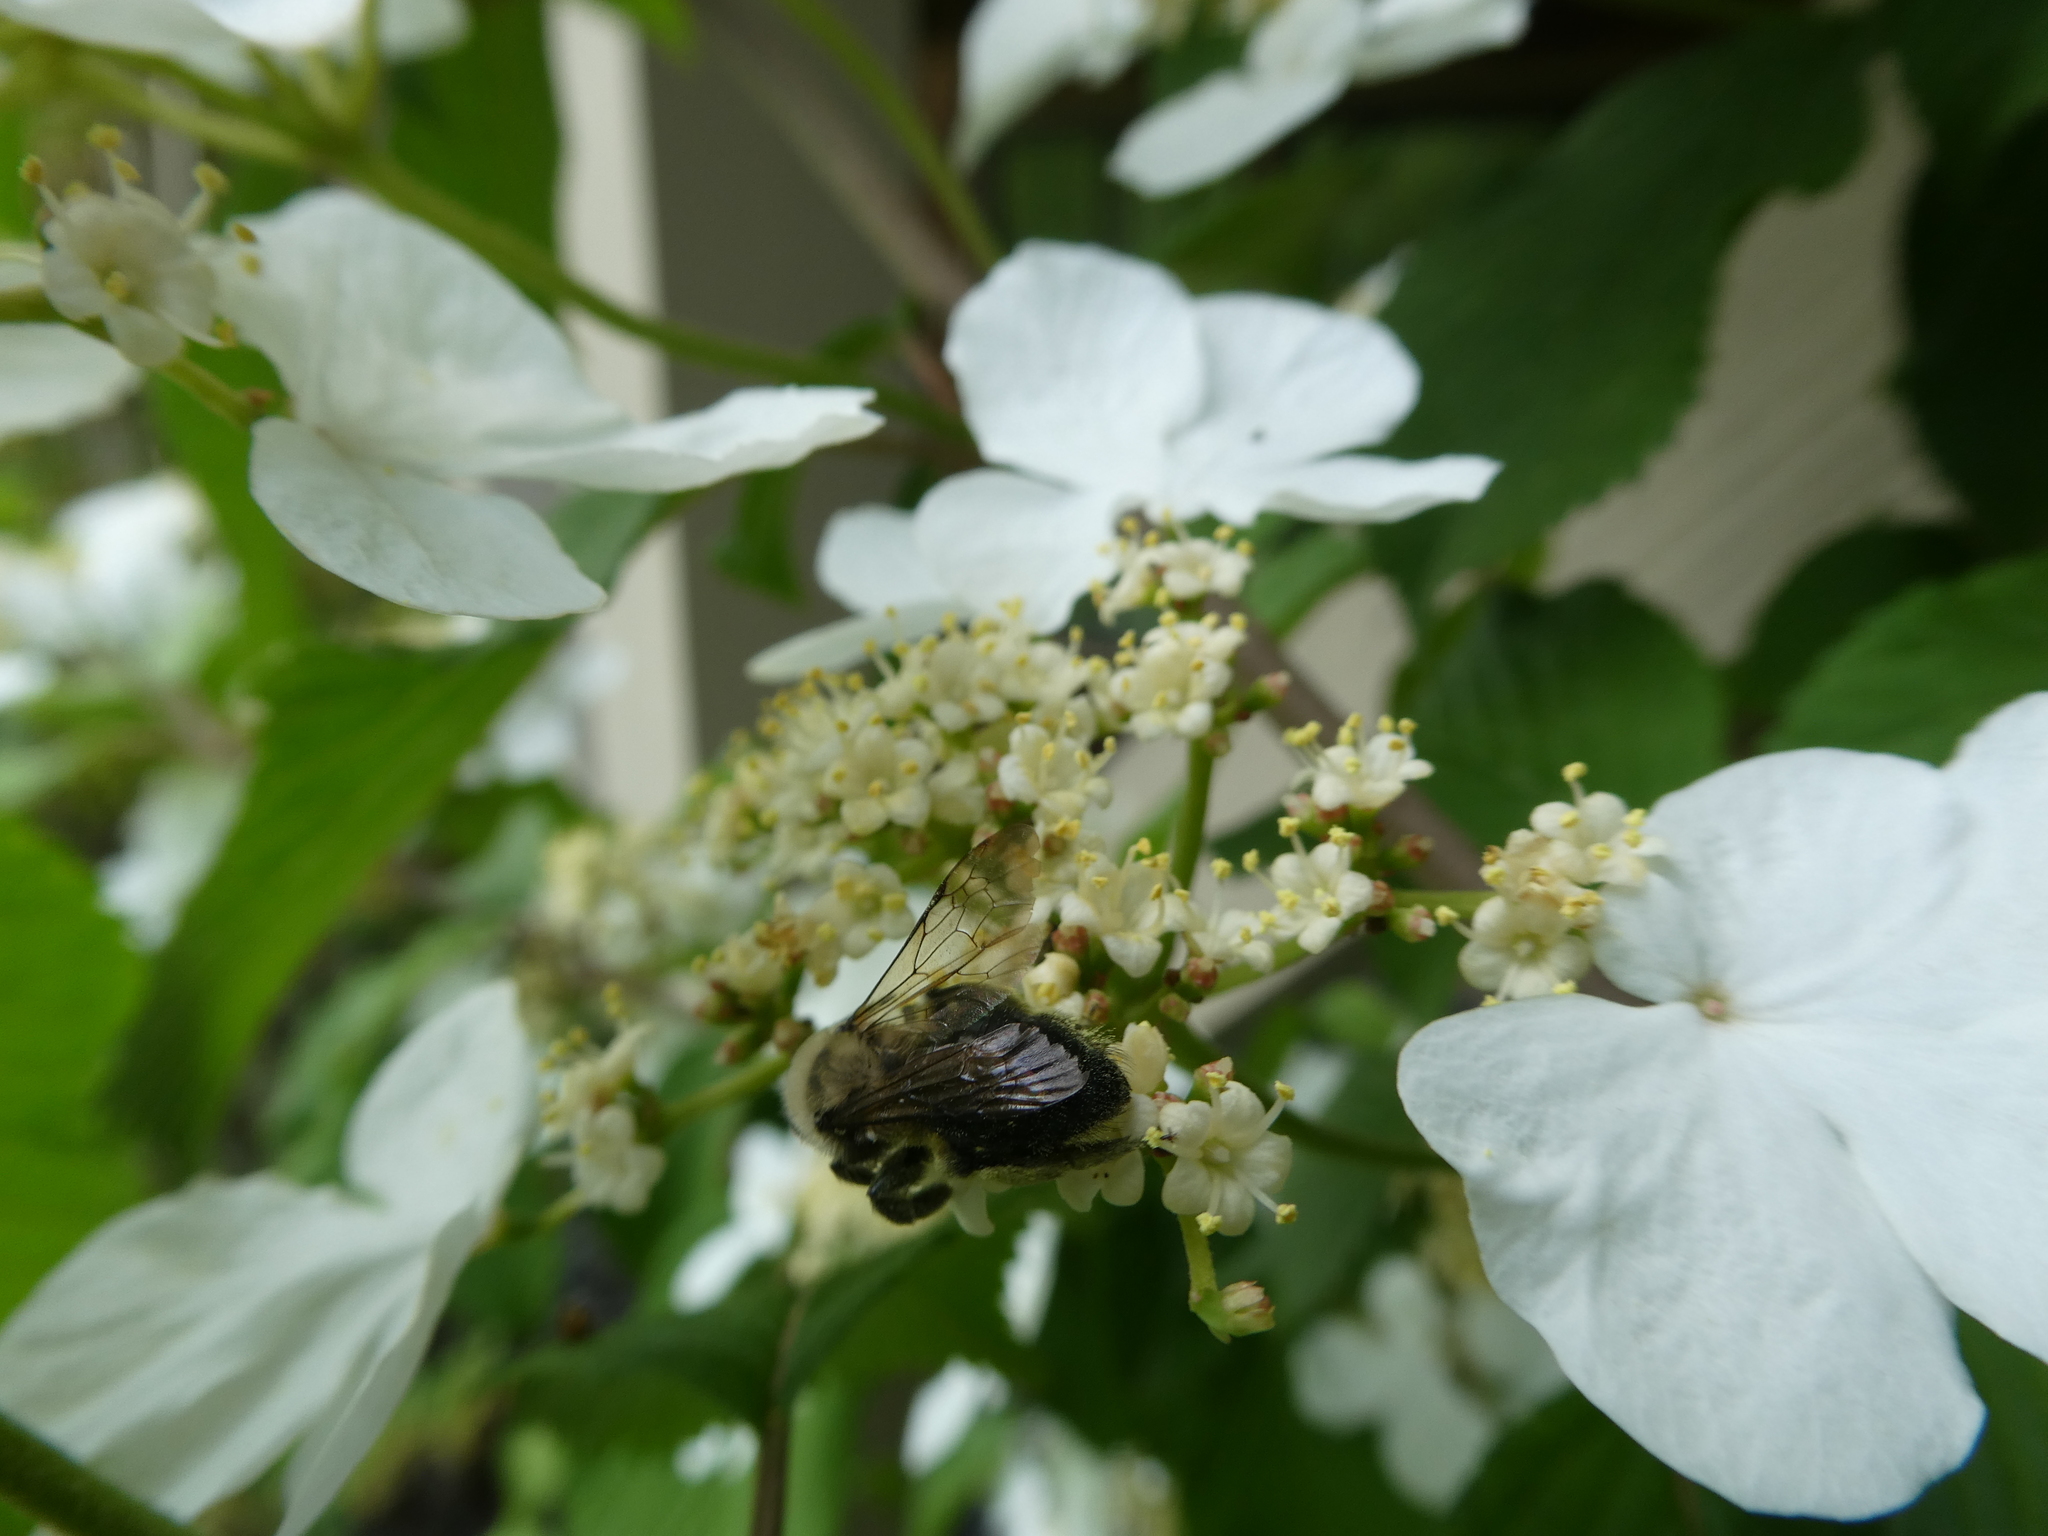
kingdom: Animalia
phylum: Arthropoda
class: Insecta
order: Hymenoptera
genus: Melandrena
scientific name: Melandrena
